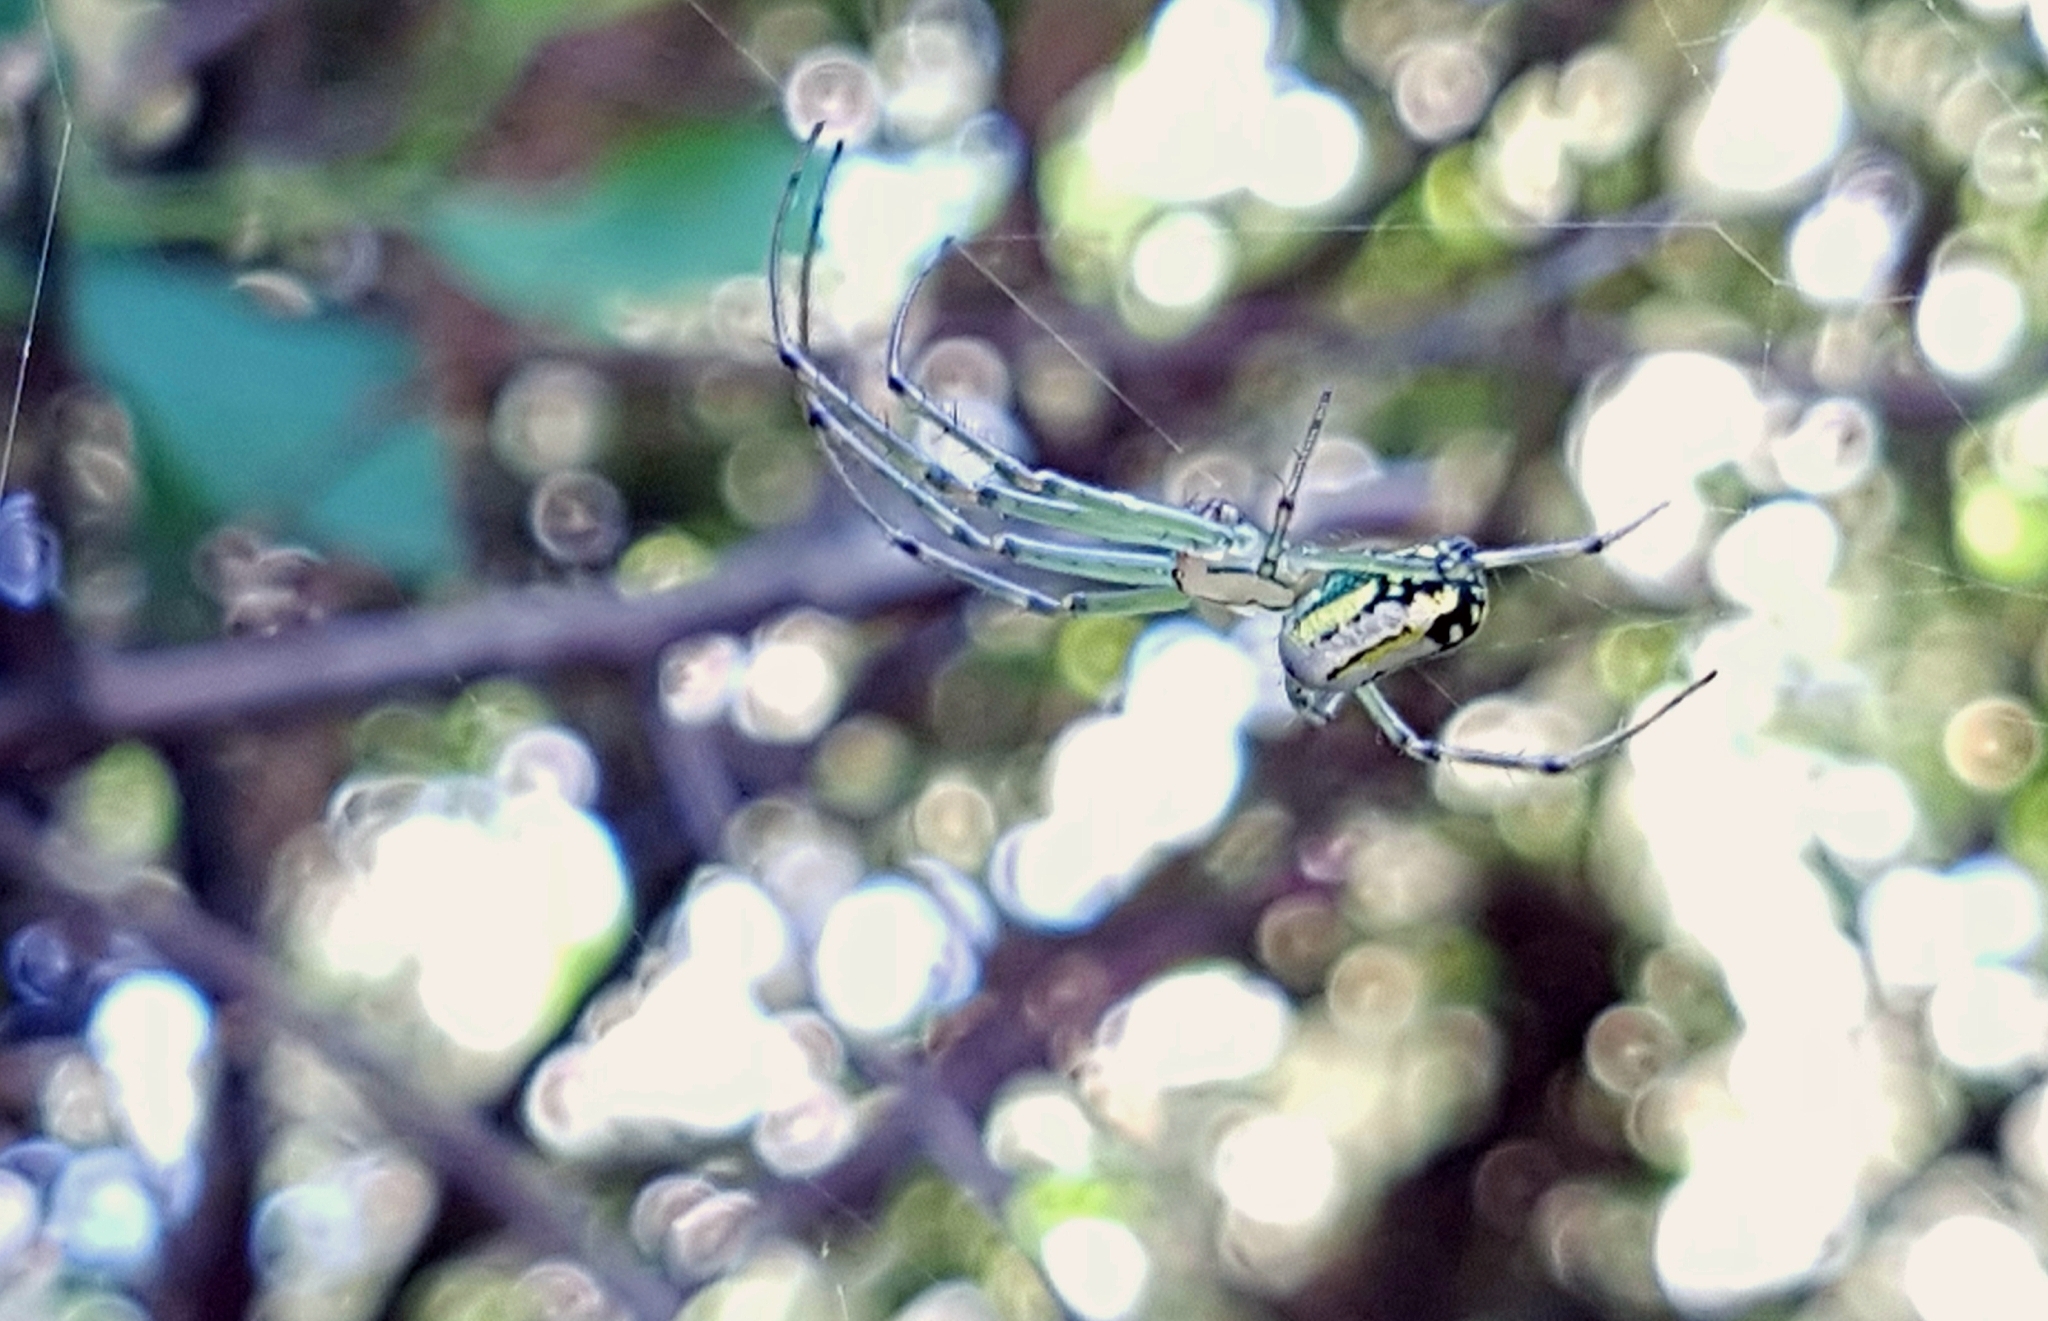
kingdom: Animalia
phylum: Arthropoda
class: Arachnida
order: Araneae
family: Tetragnathidae
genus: Leucauge
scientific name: Leucauge venusta
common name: Longjawed orb weavers
